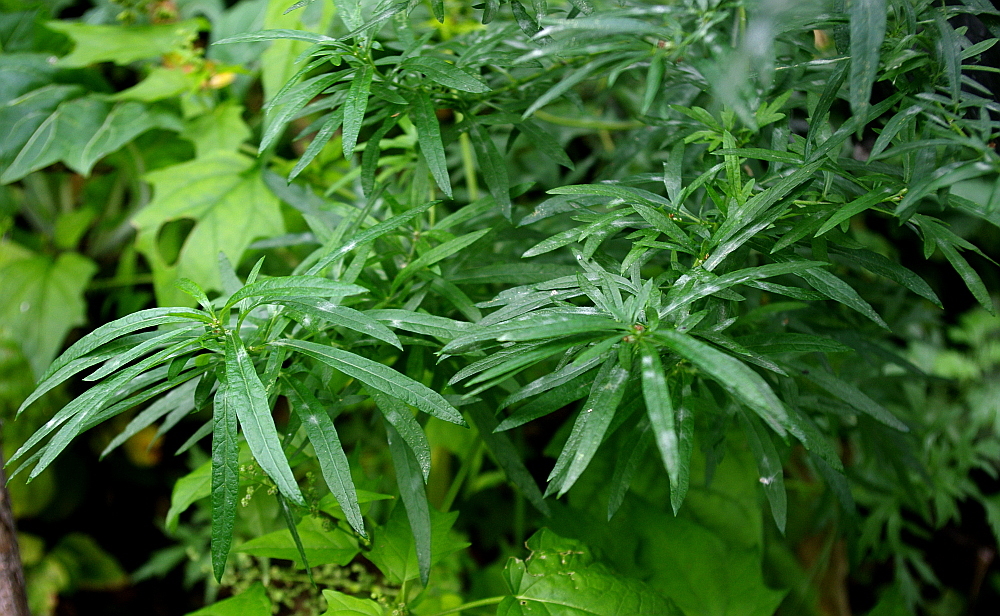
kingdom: Plantae
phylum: Tracheophyta
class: Magnoliopsida
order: Asterales
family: Asteraceae
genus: Artemisia
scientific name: Artemisia vulgaris
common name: Mugwort
